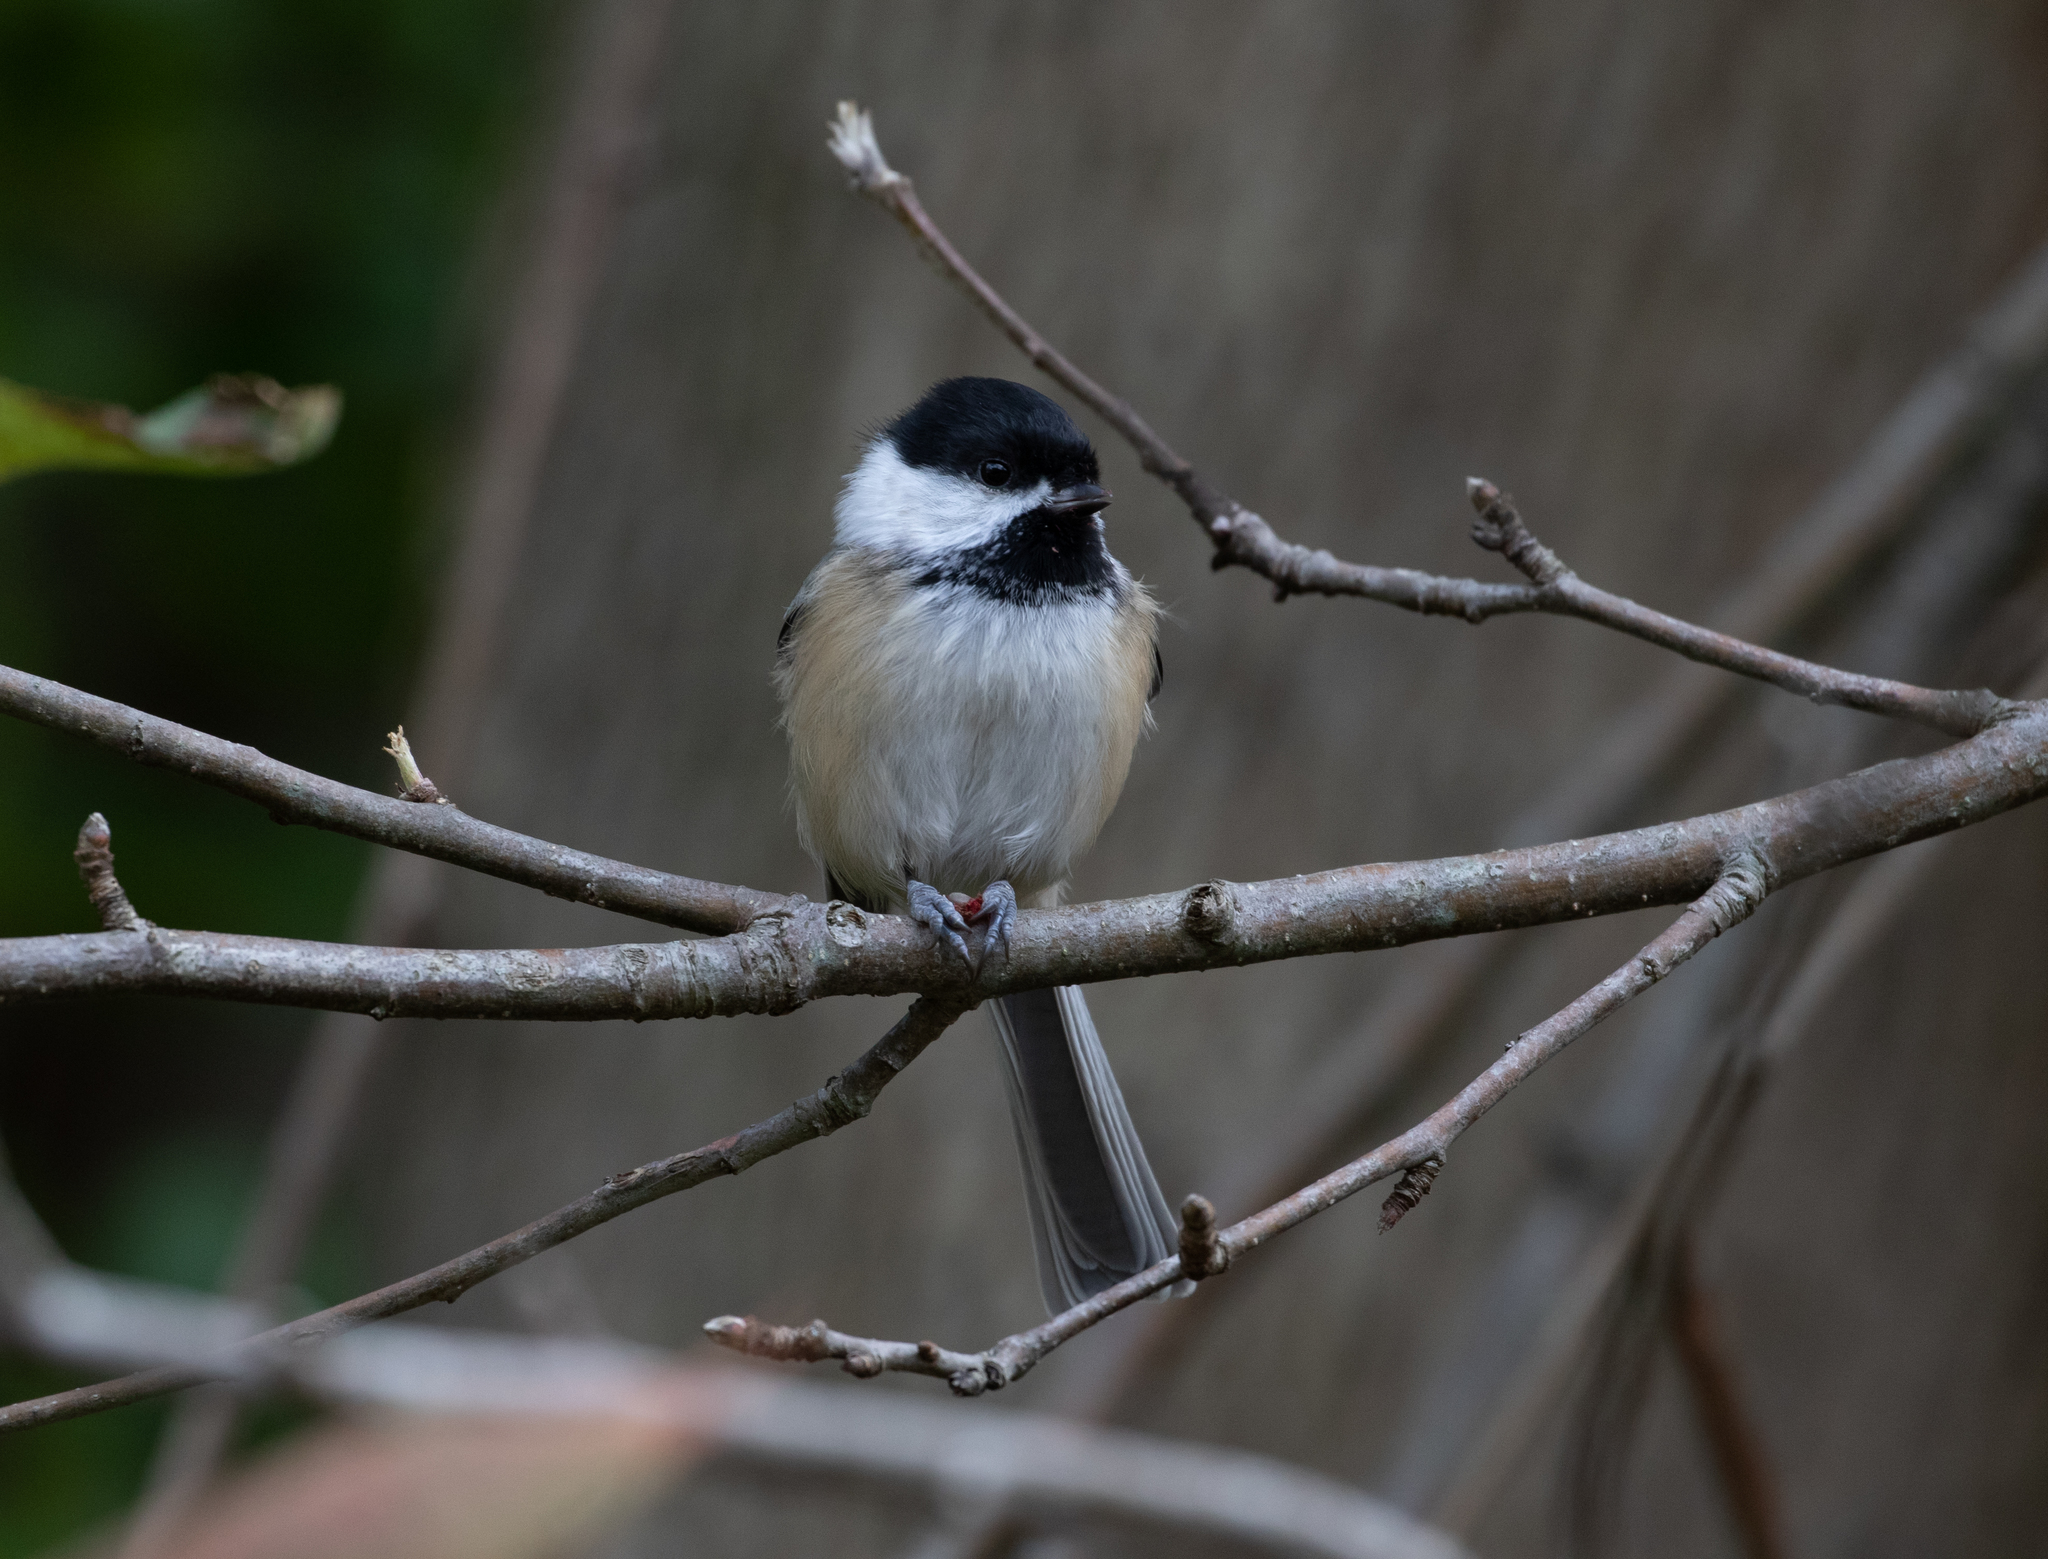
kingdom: Animalia
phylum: Chordata
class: Aves
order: Passeriformes
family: Paridae
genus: Poecile
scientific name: Poecile atricapillus
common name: Black-capped chickadee
